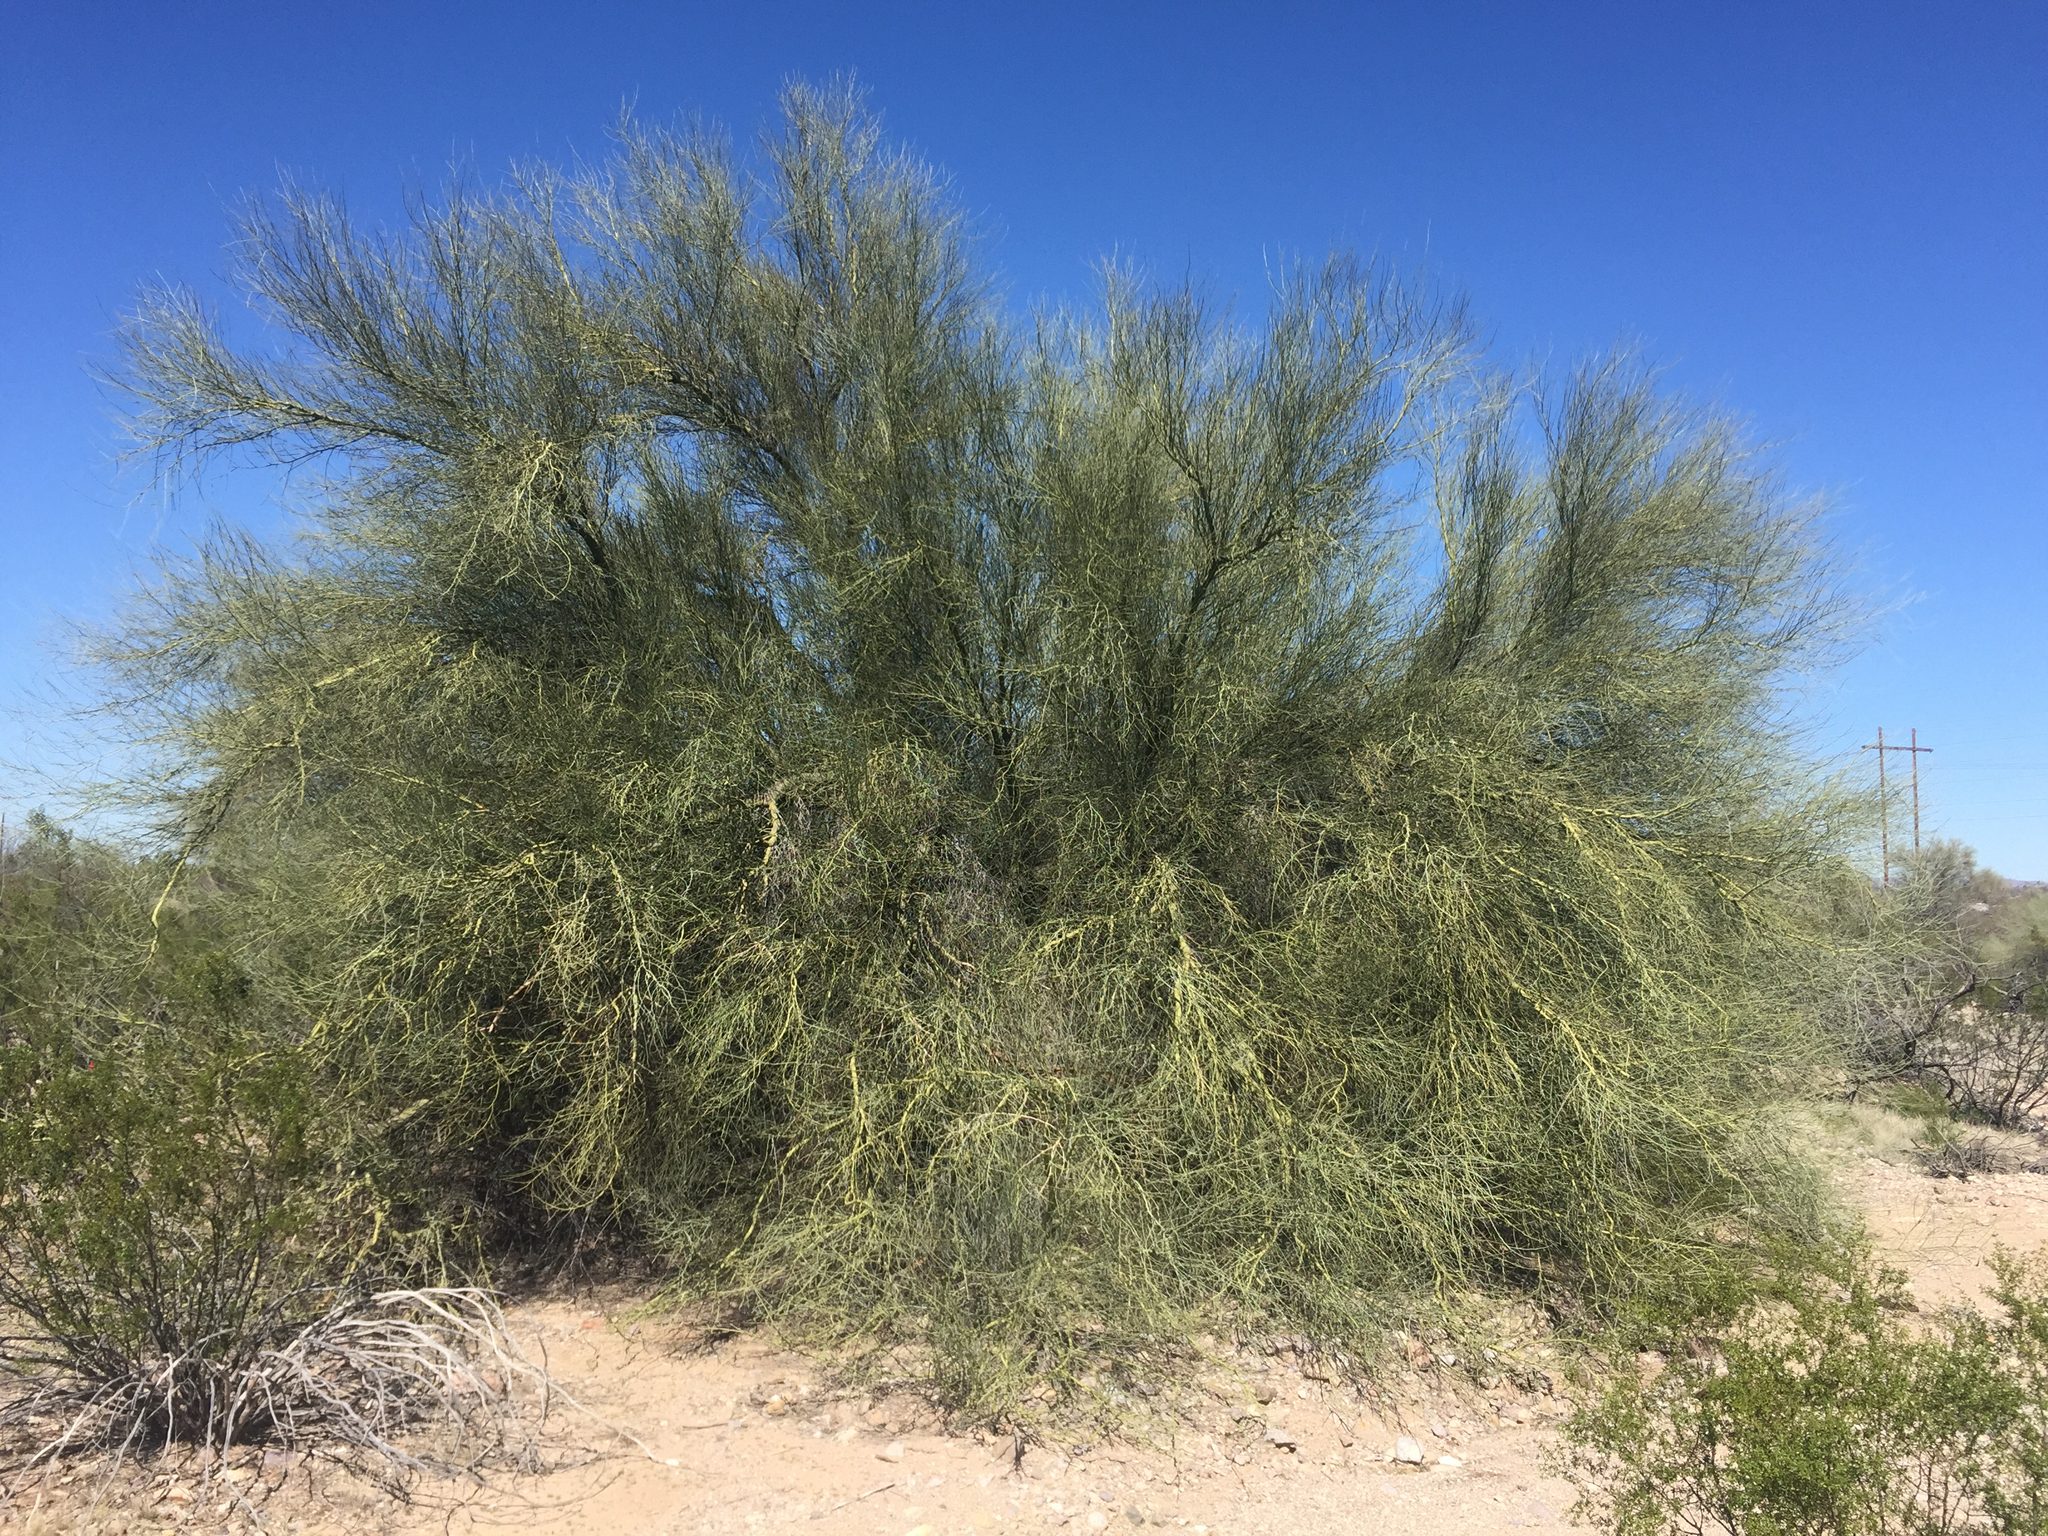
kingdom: Plantae
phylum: Tracheophyta
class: Magnoliopsida
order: Fabales
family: Fabaceae
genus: Parkinsonia
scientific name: Parkinsonia florida
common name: Blue paloverde
